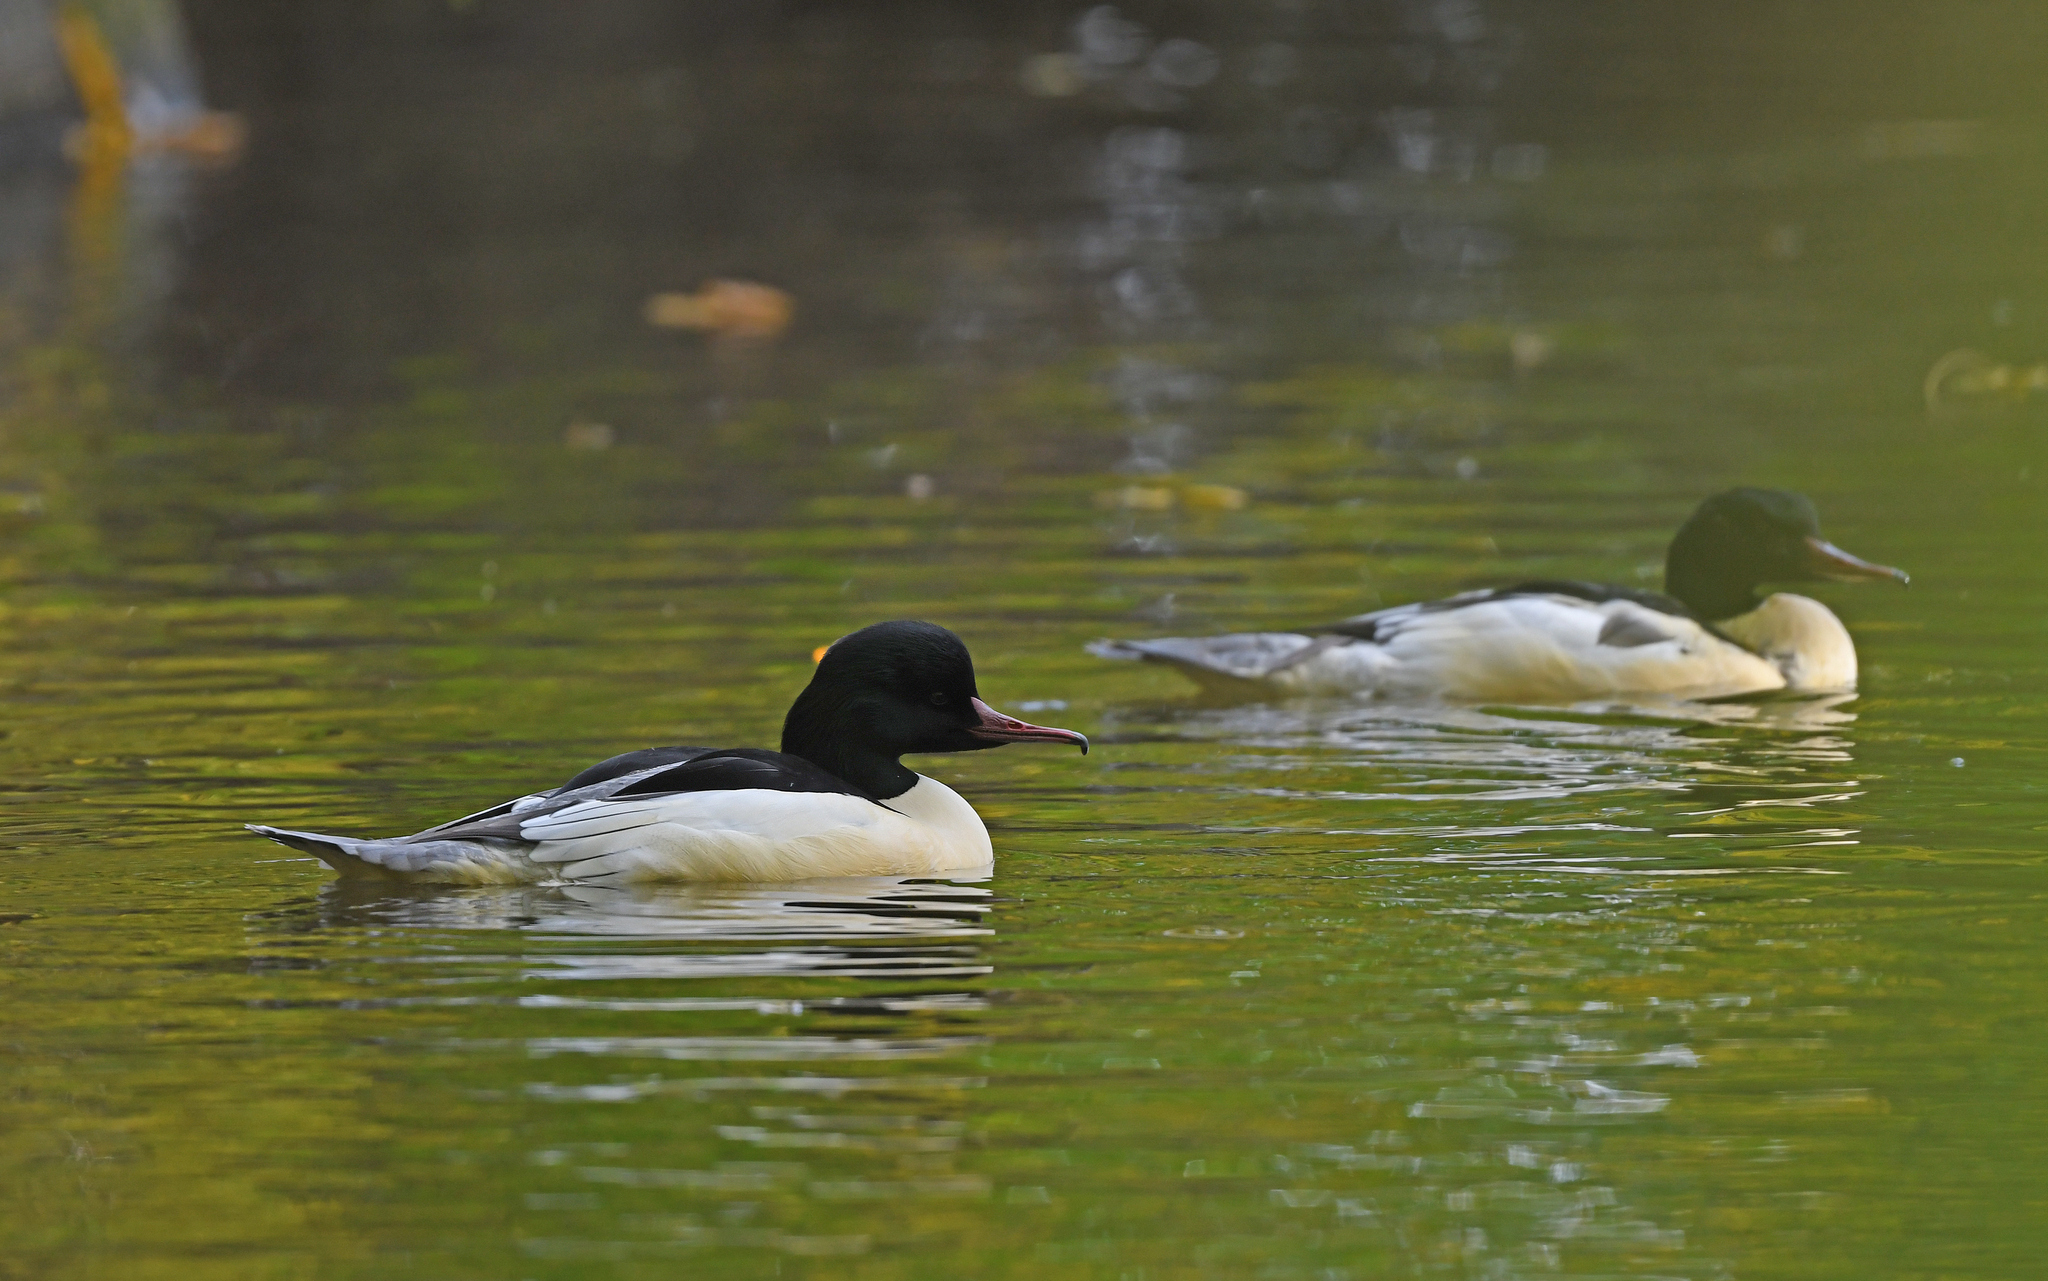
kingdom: Animalia
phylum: Chordata
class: Aves
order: Anseriformes
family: Anatidae
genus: Mergus
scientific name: Mergus merganser
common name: Common merganser
